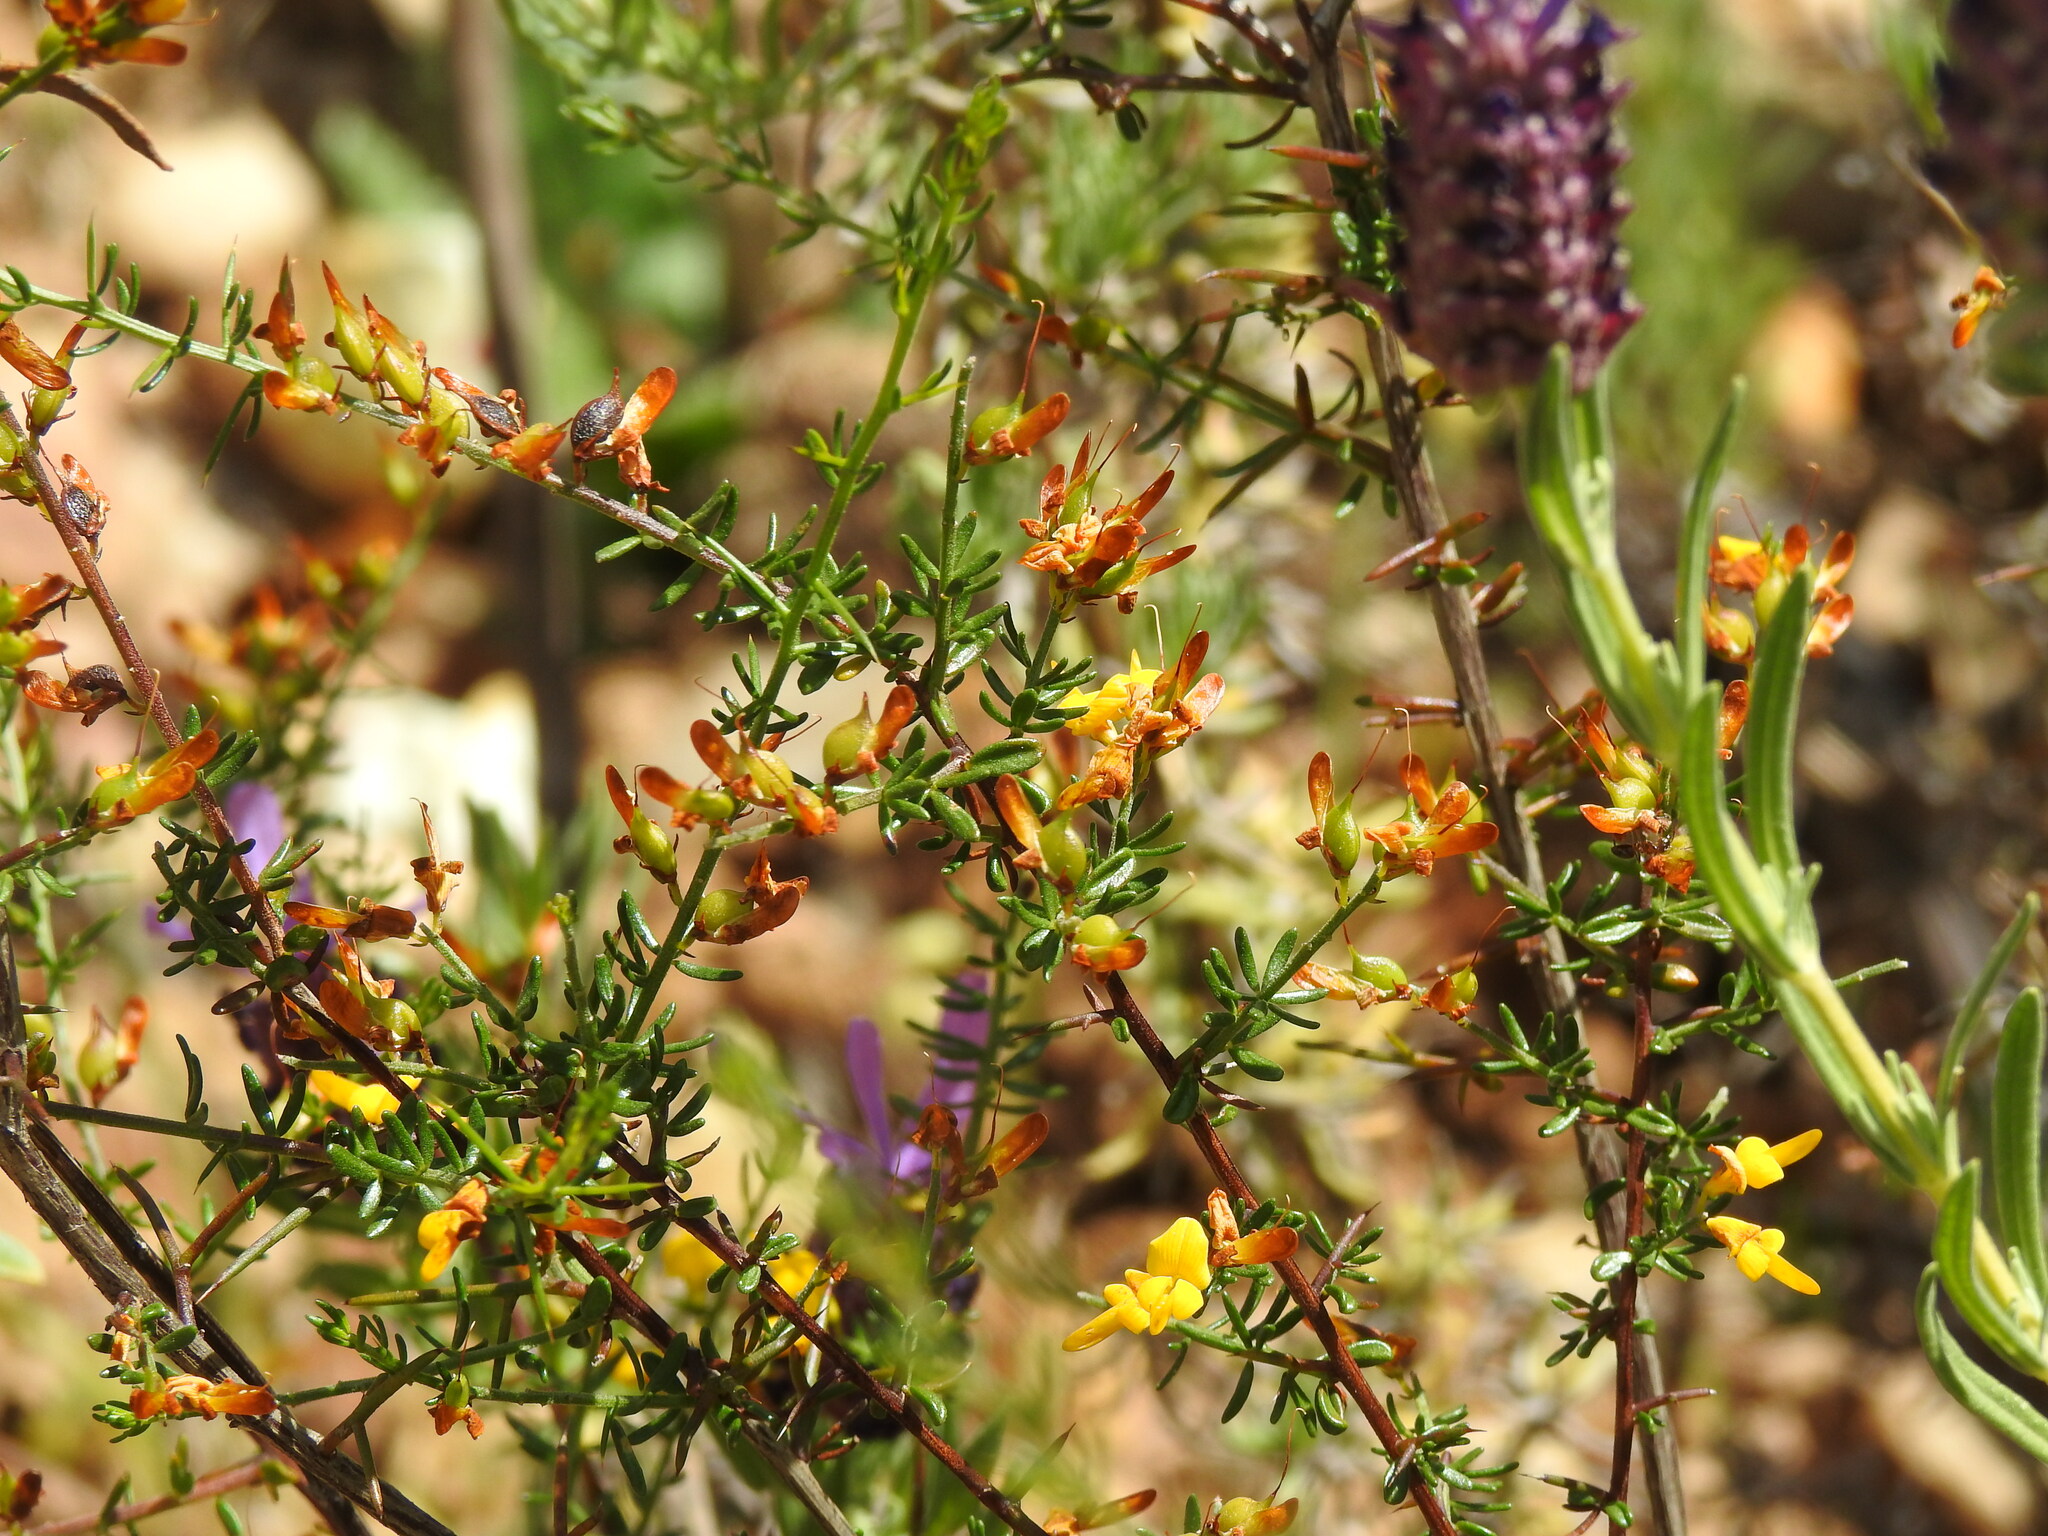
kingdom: Plantae
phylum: Tracheophyta
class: Magnoliopsida
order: Fabales
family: Fabaceae
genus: Genista
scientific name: Genista triacanthos
